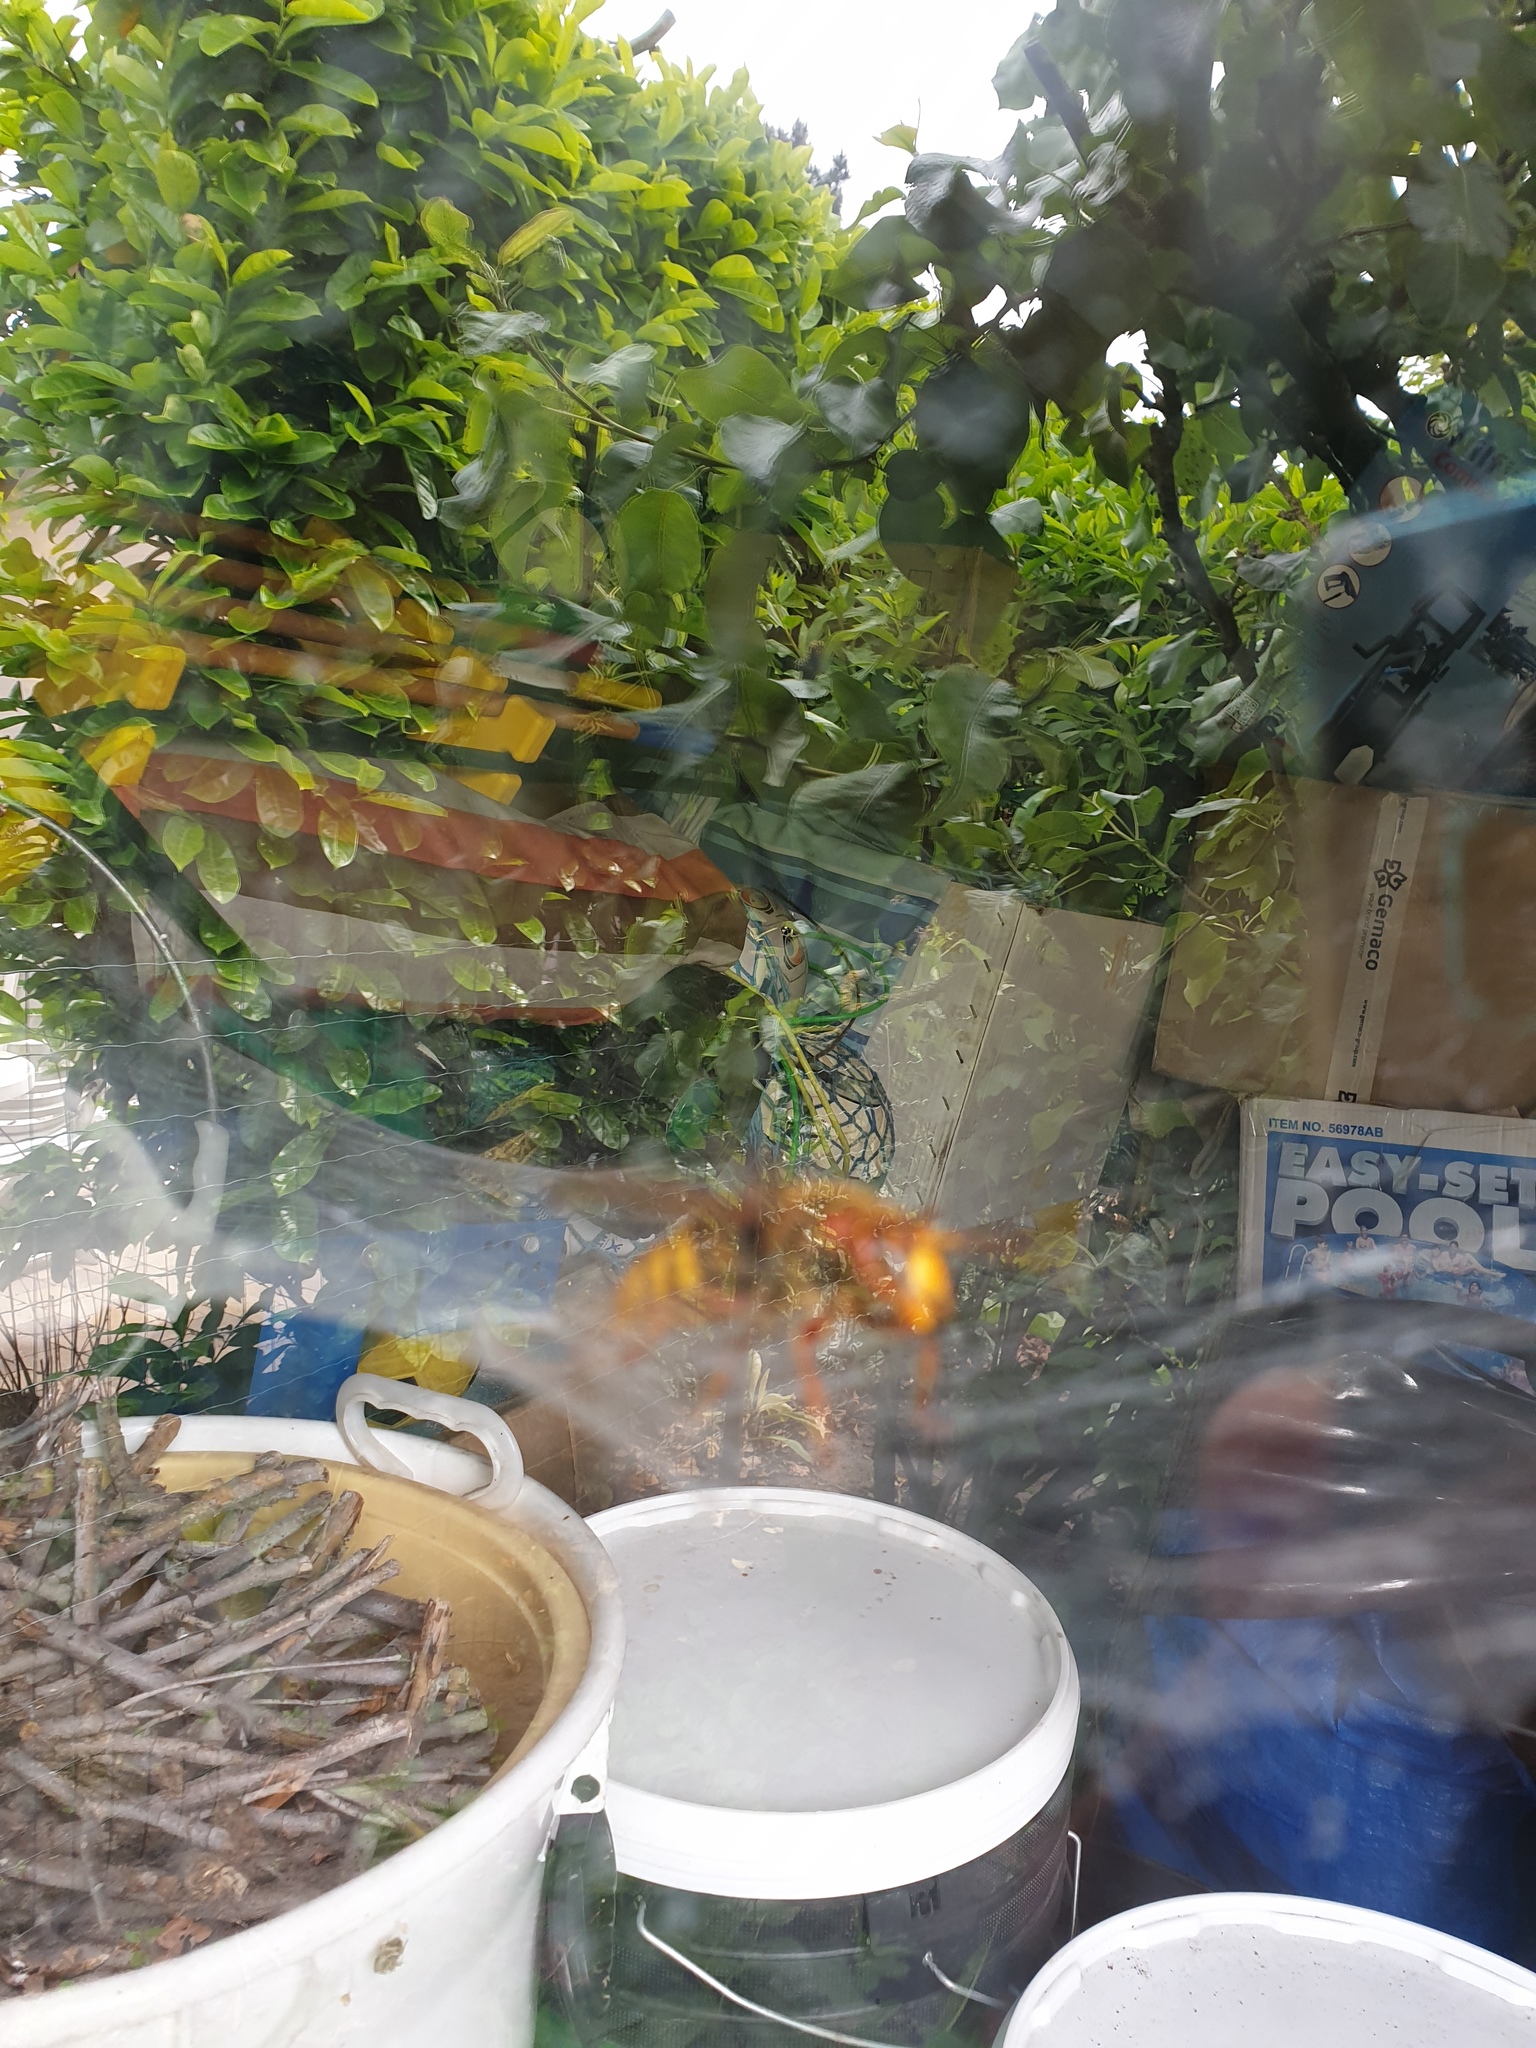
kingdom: Animalia
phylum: Arthropoda
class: Insecta
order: Hymenoptera
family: Vespidae
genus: Vespa
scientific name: Vespa crabro
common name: Hornet
